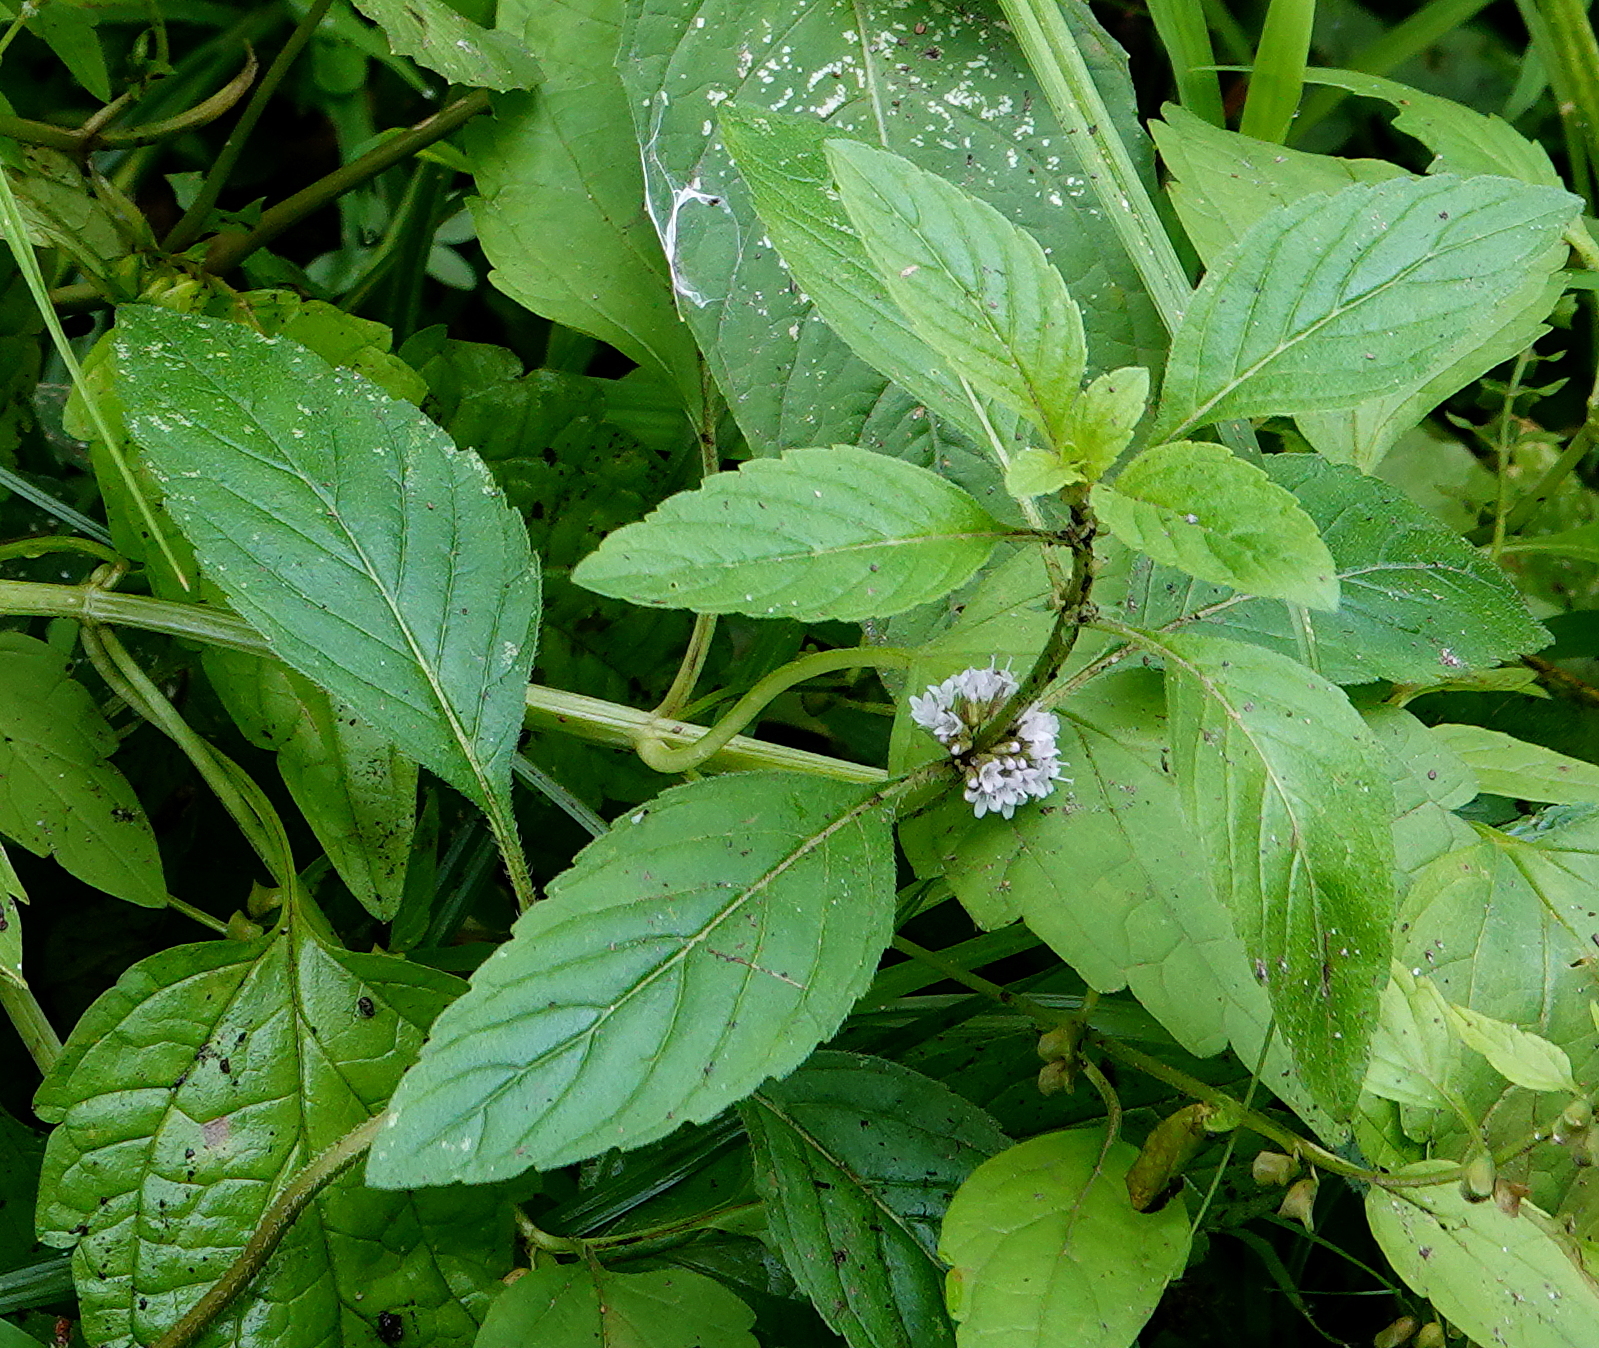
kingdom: Plantae
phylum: Tracheophyta
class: Magnoliopsida
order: Lamiales
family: Lamiaceae
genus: Mentha
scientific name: Mentha canadensis
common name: American corn mint
